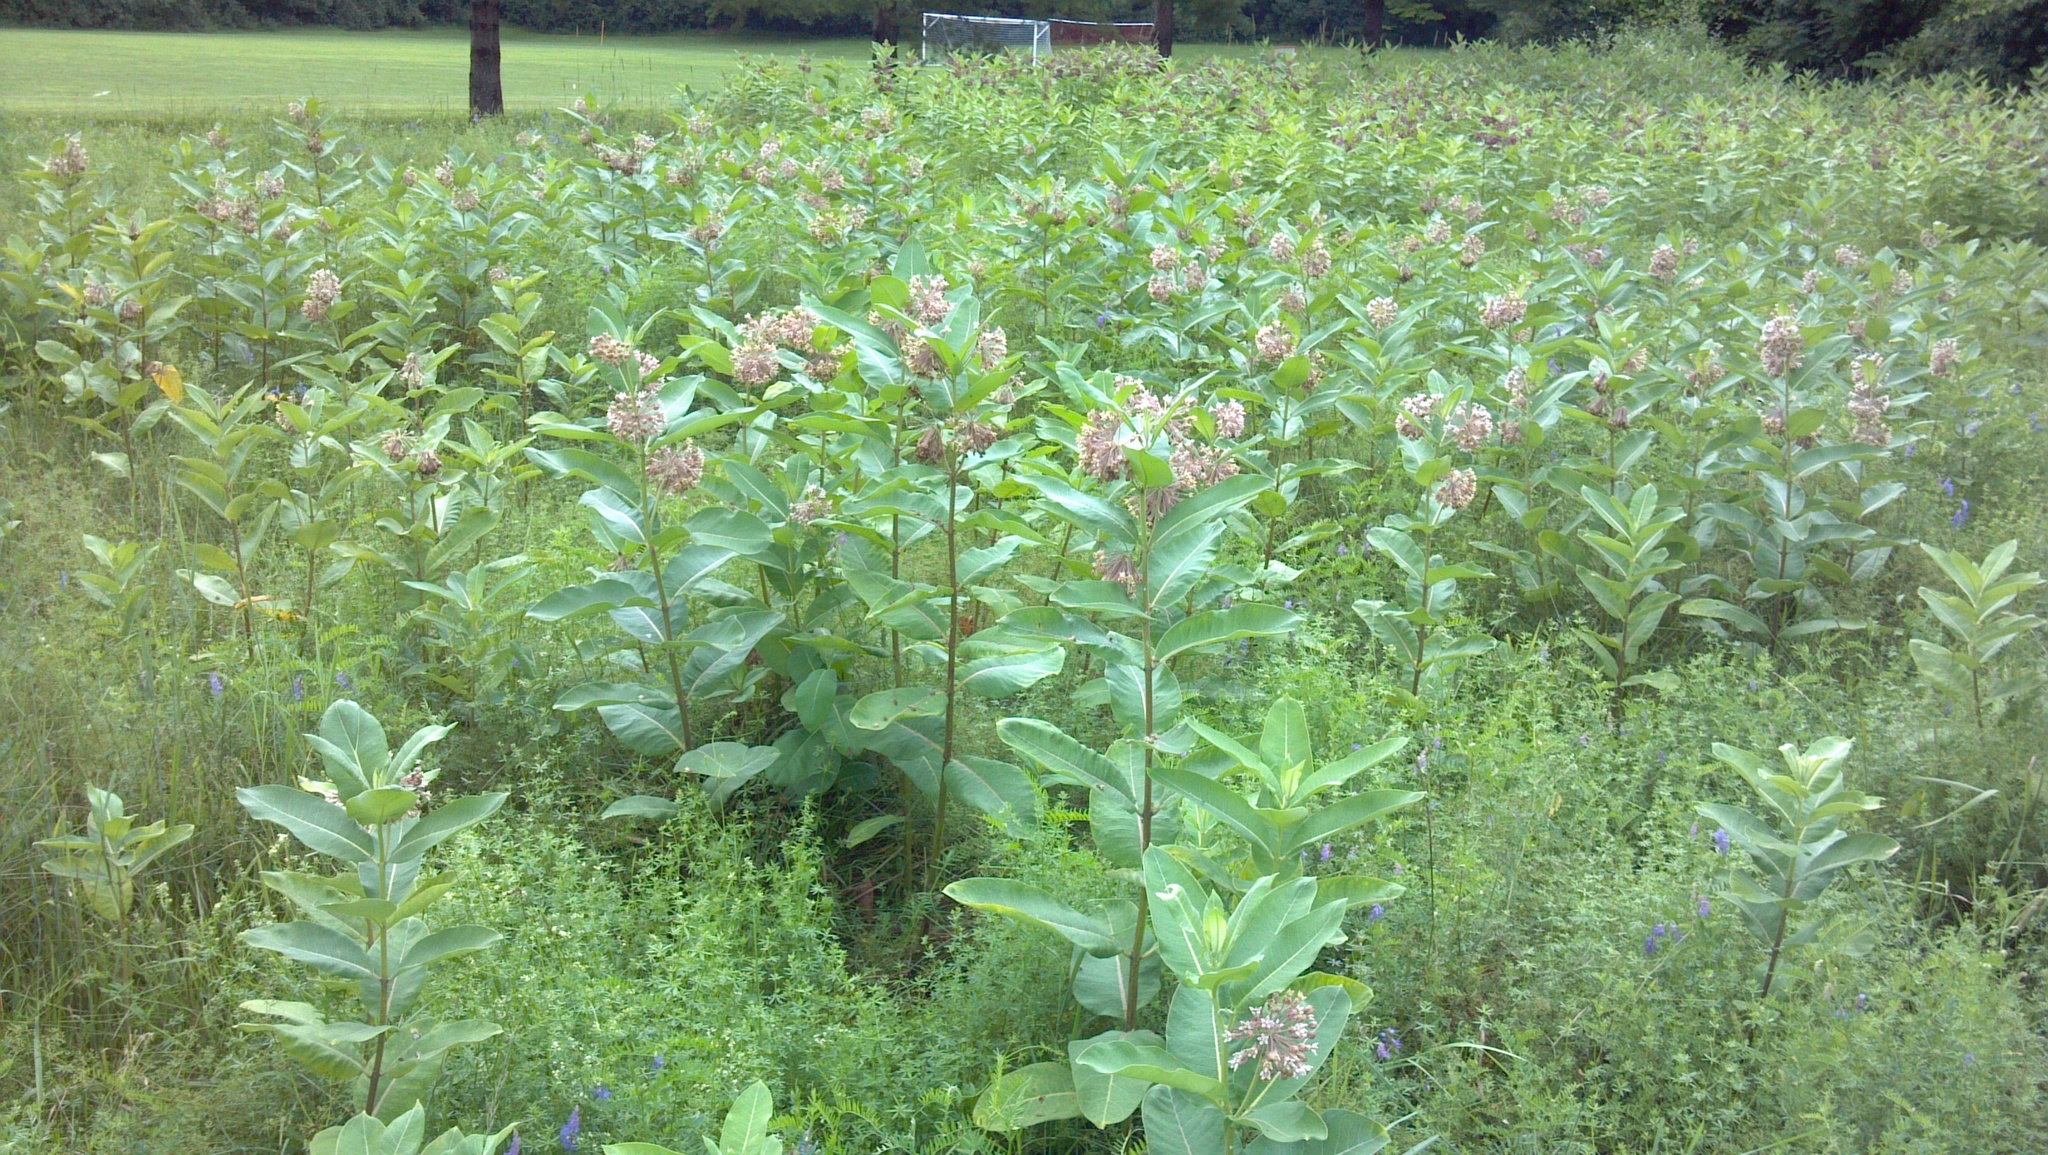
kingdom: Plantae
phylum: Tracheophyta
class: Magnoliopsida
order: Gentianales
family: Apocynaceae
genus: Asclepias
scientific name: Asclepias syriaca
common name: Common milkweed
